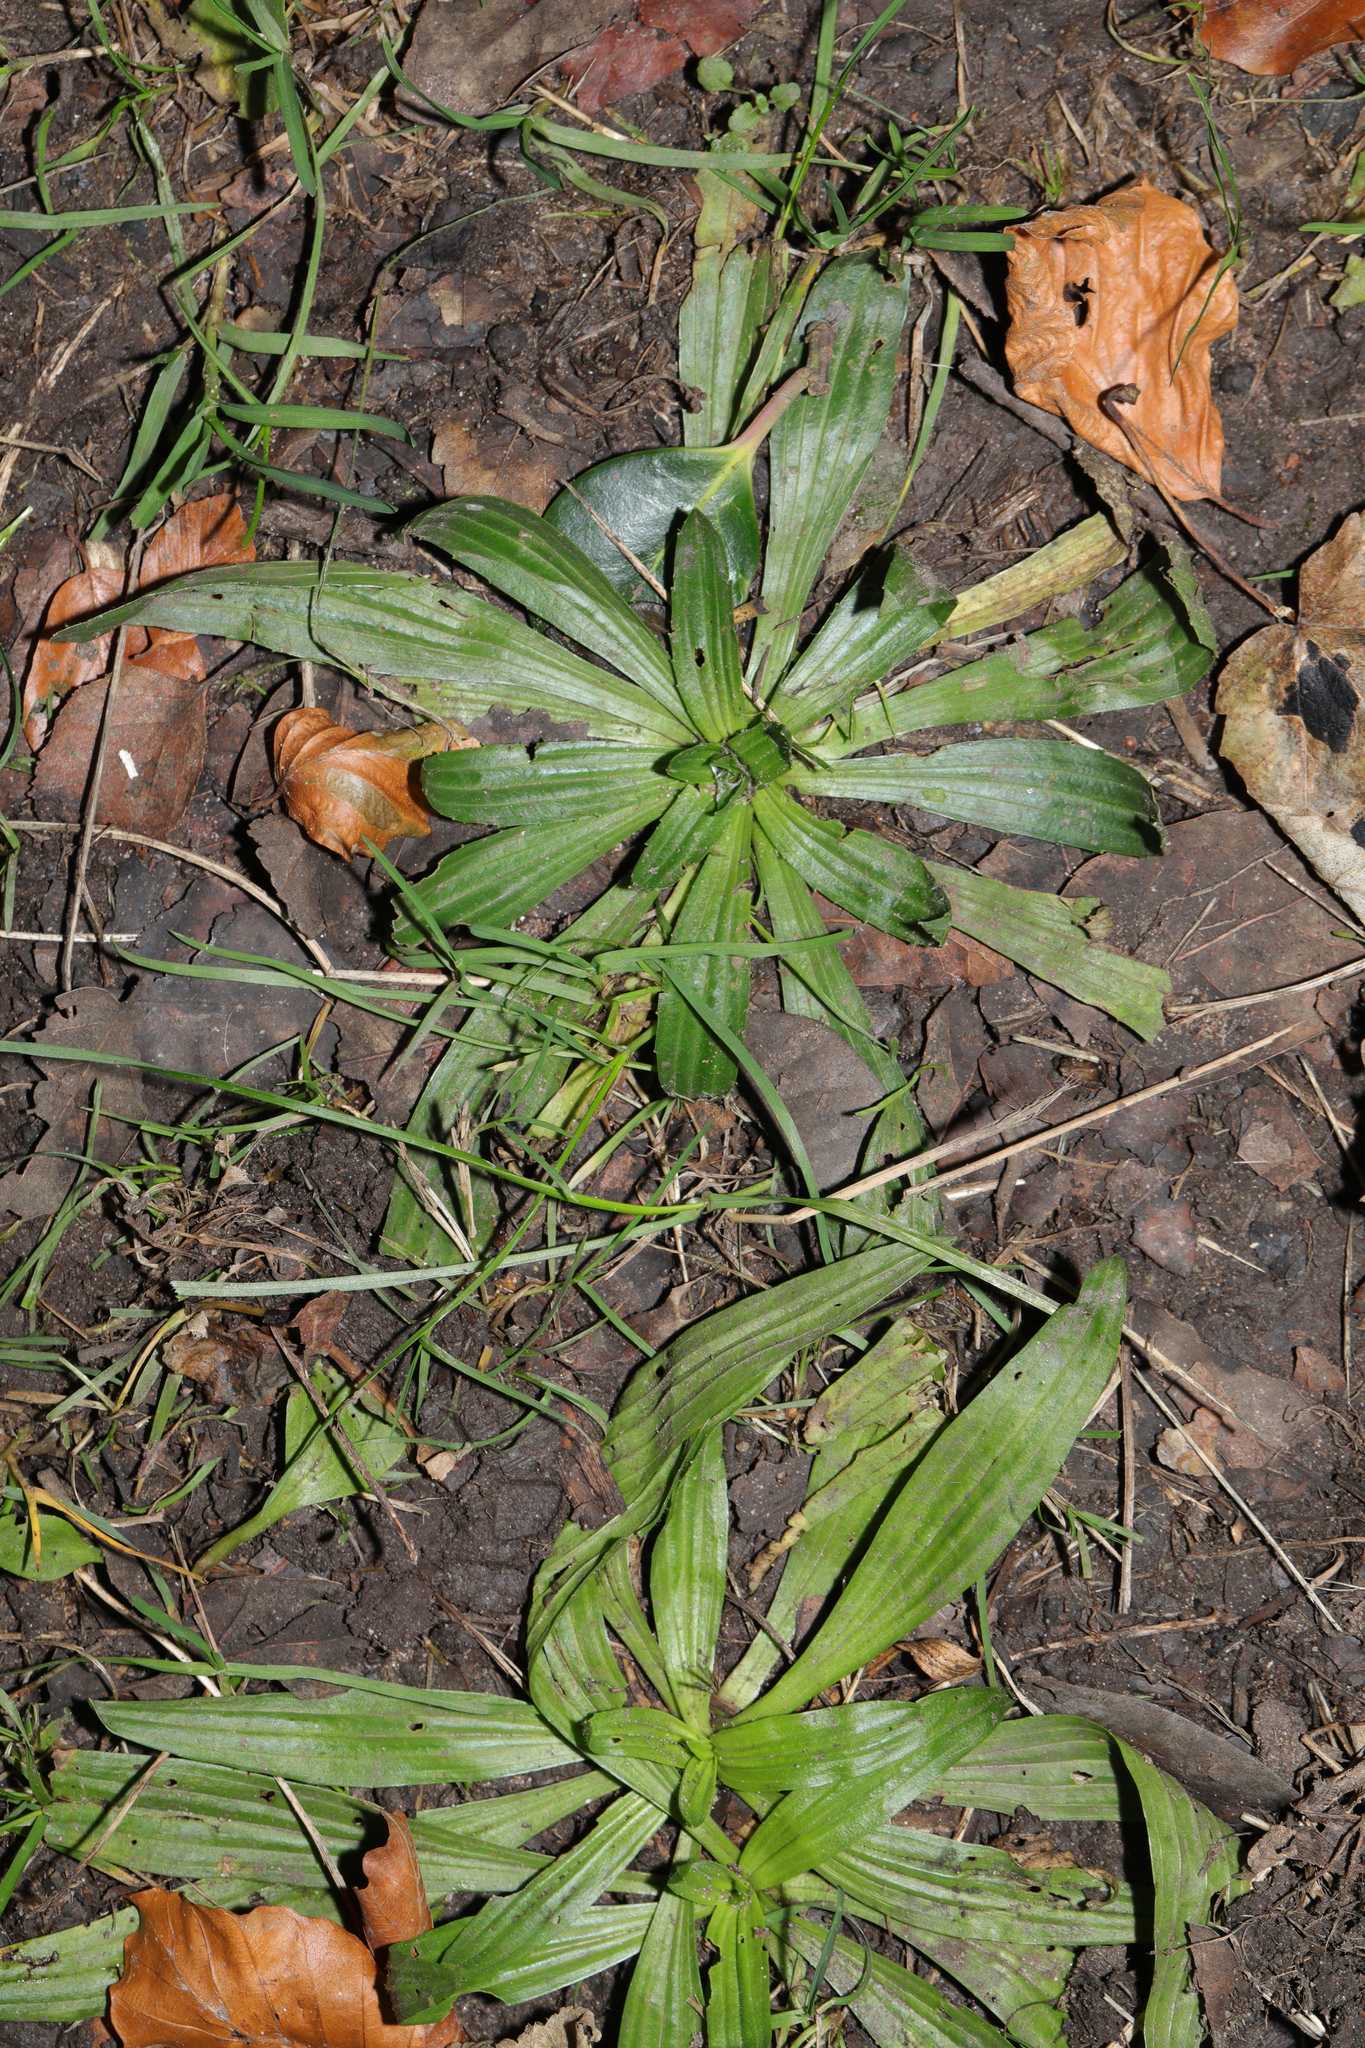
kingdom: Plantae
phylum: Tracheophyta
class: Magnoliopsida
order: Lamiales
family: Plantaginaceae
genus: Plantago
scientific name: Plantago lanceolata
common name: Ribwort plantain
